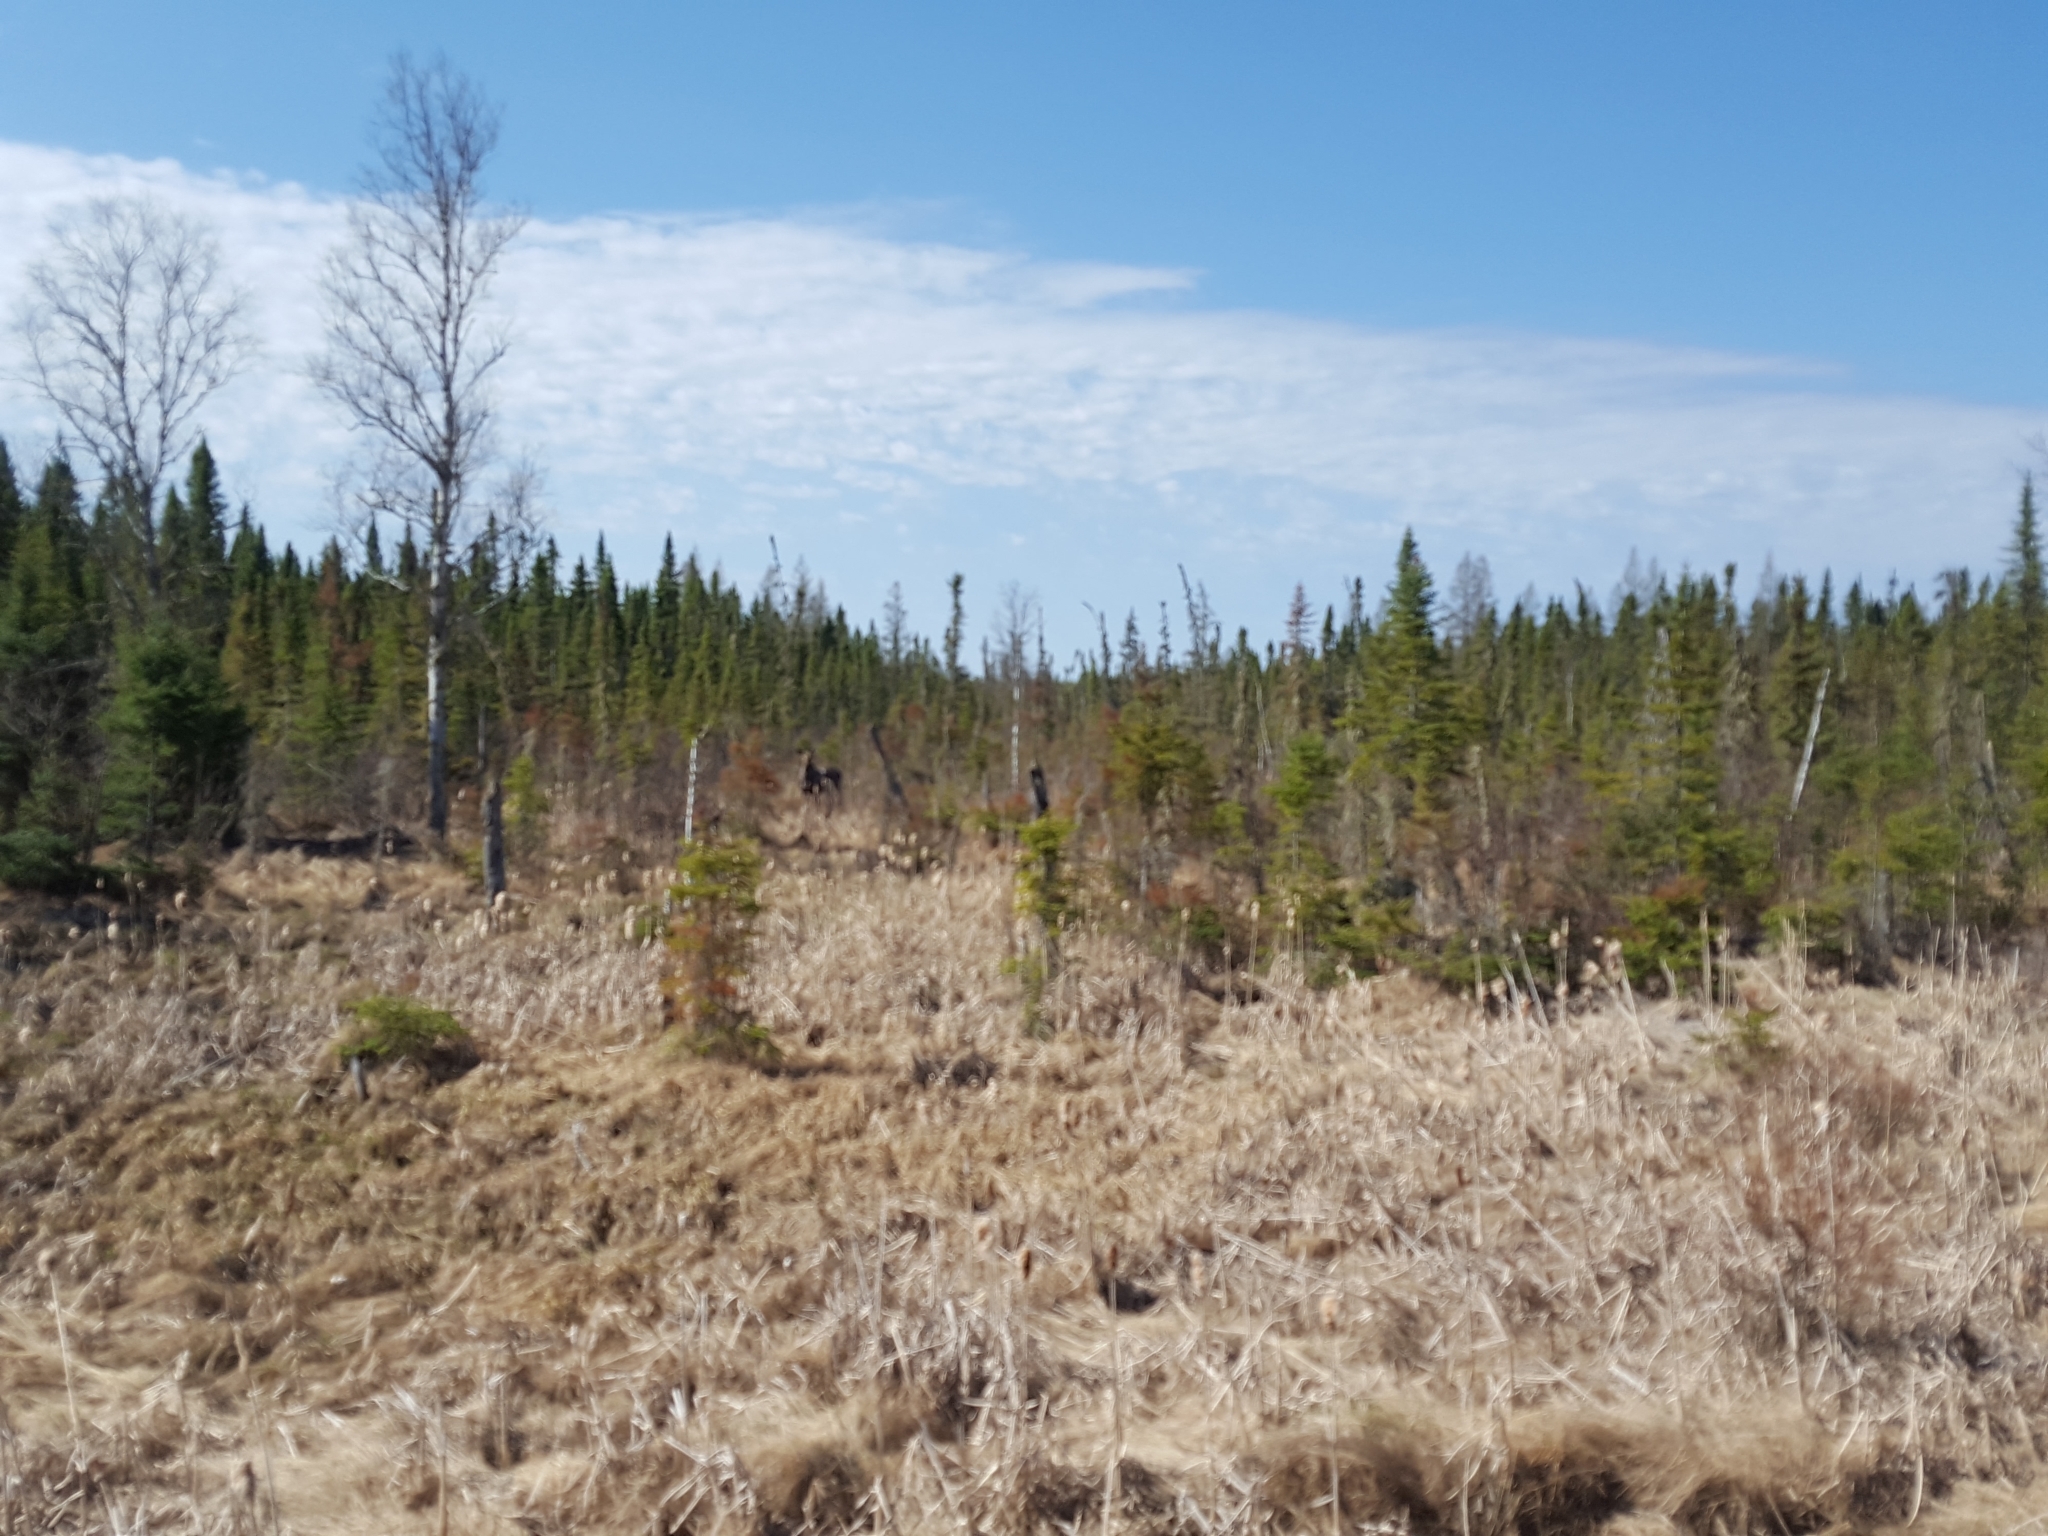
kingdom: Animalia
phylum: Chordata
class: Mammalia
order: Artiodactyla
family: Cervidae
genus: Alces
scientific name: Alces alces
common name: Moose
